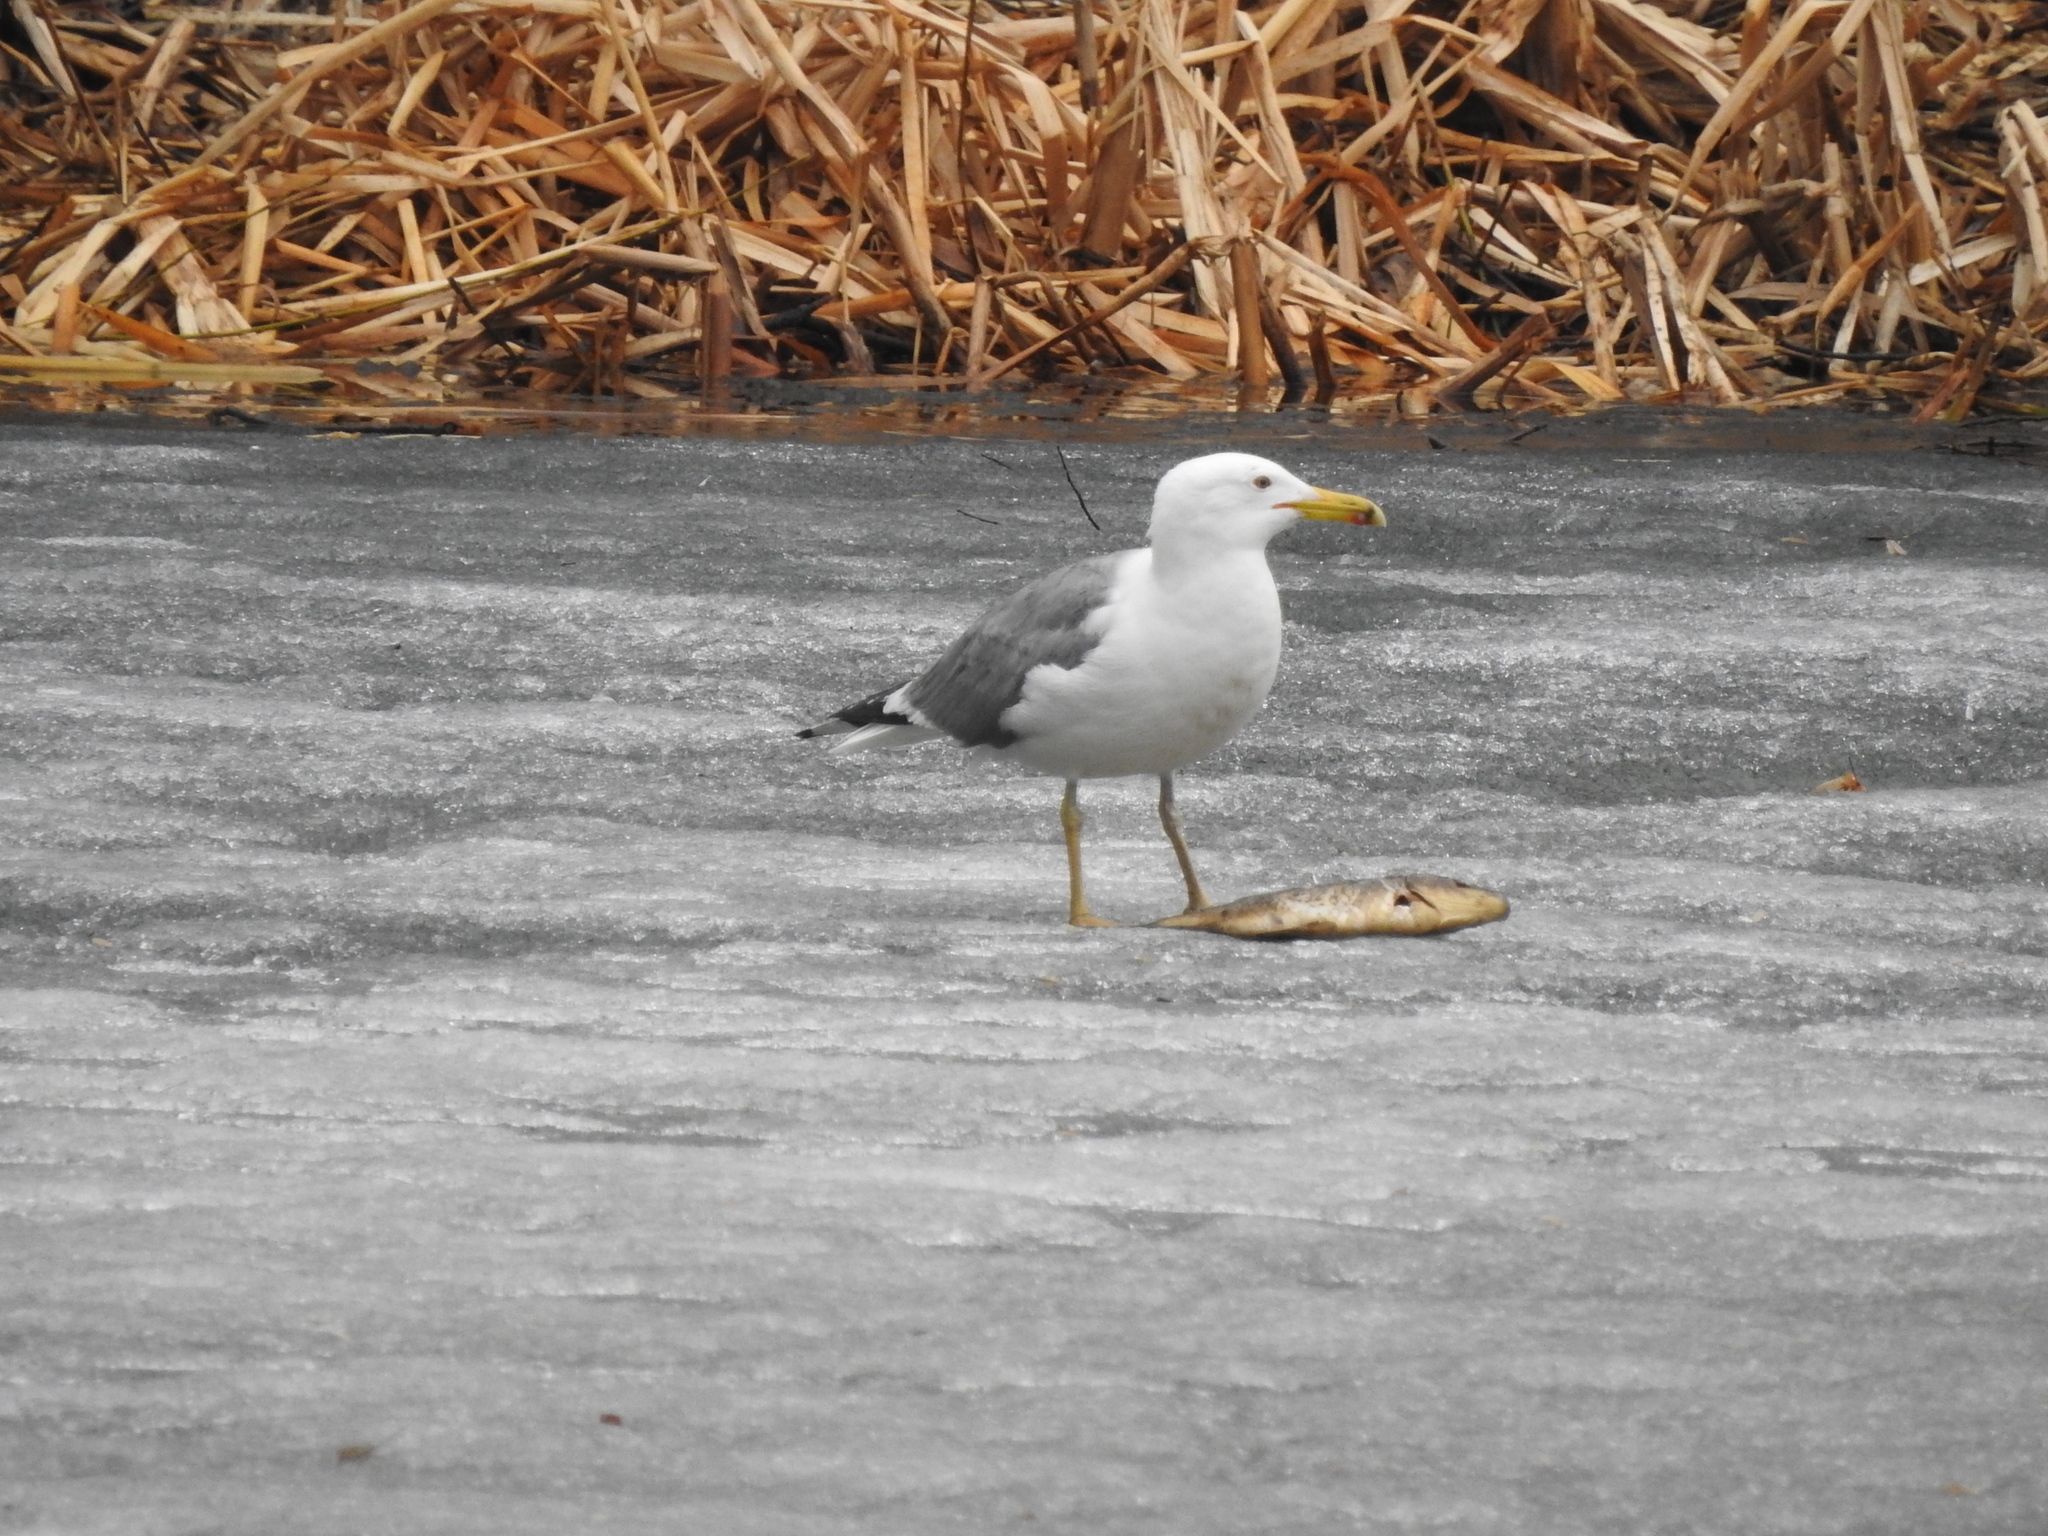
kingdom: Animalia
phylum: Chordata
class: Aves
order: Charadriiformes
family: Laridae
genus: Larus
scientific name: Larus fuscus
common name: Lesser black-backed gull
